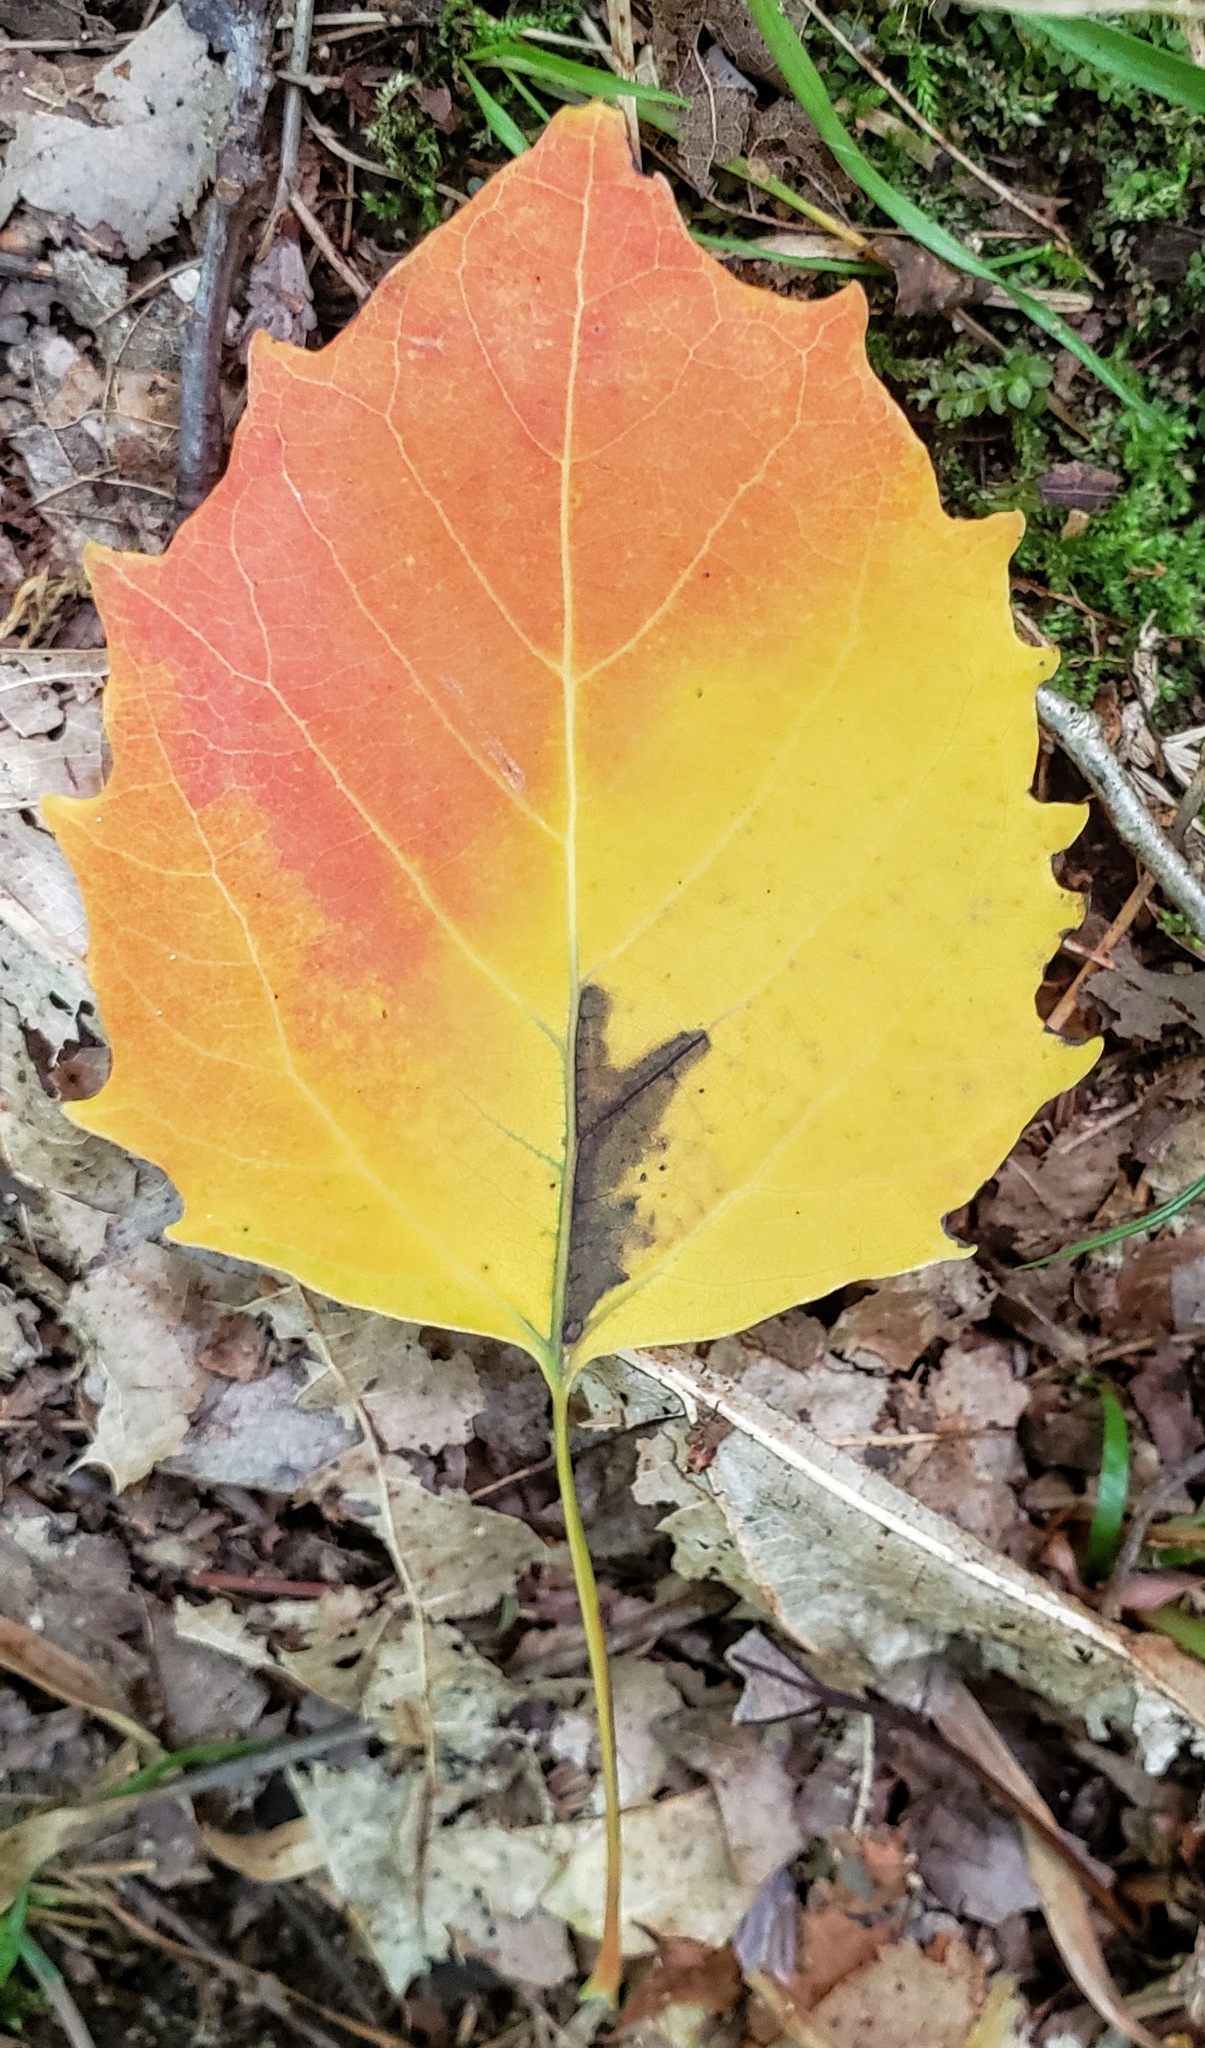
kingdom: Plantae
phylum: Tracheophyta
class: Magnoliopsida
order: Malpighiales
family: Salicaceae
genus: Populus
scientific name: Populus grandidentata
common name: Bigtooth aspen
